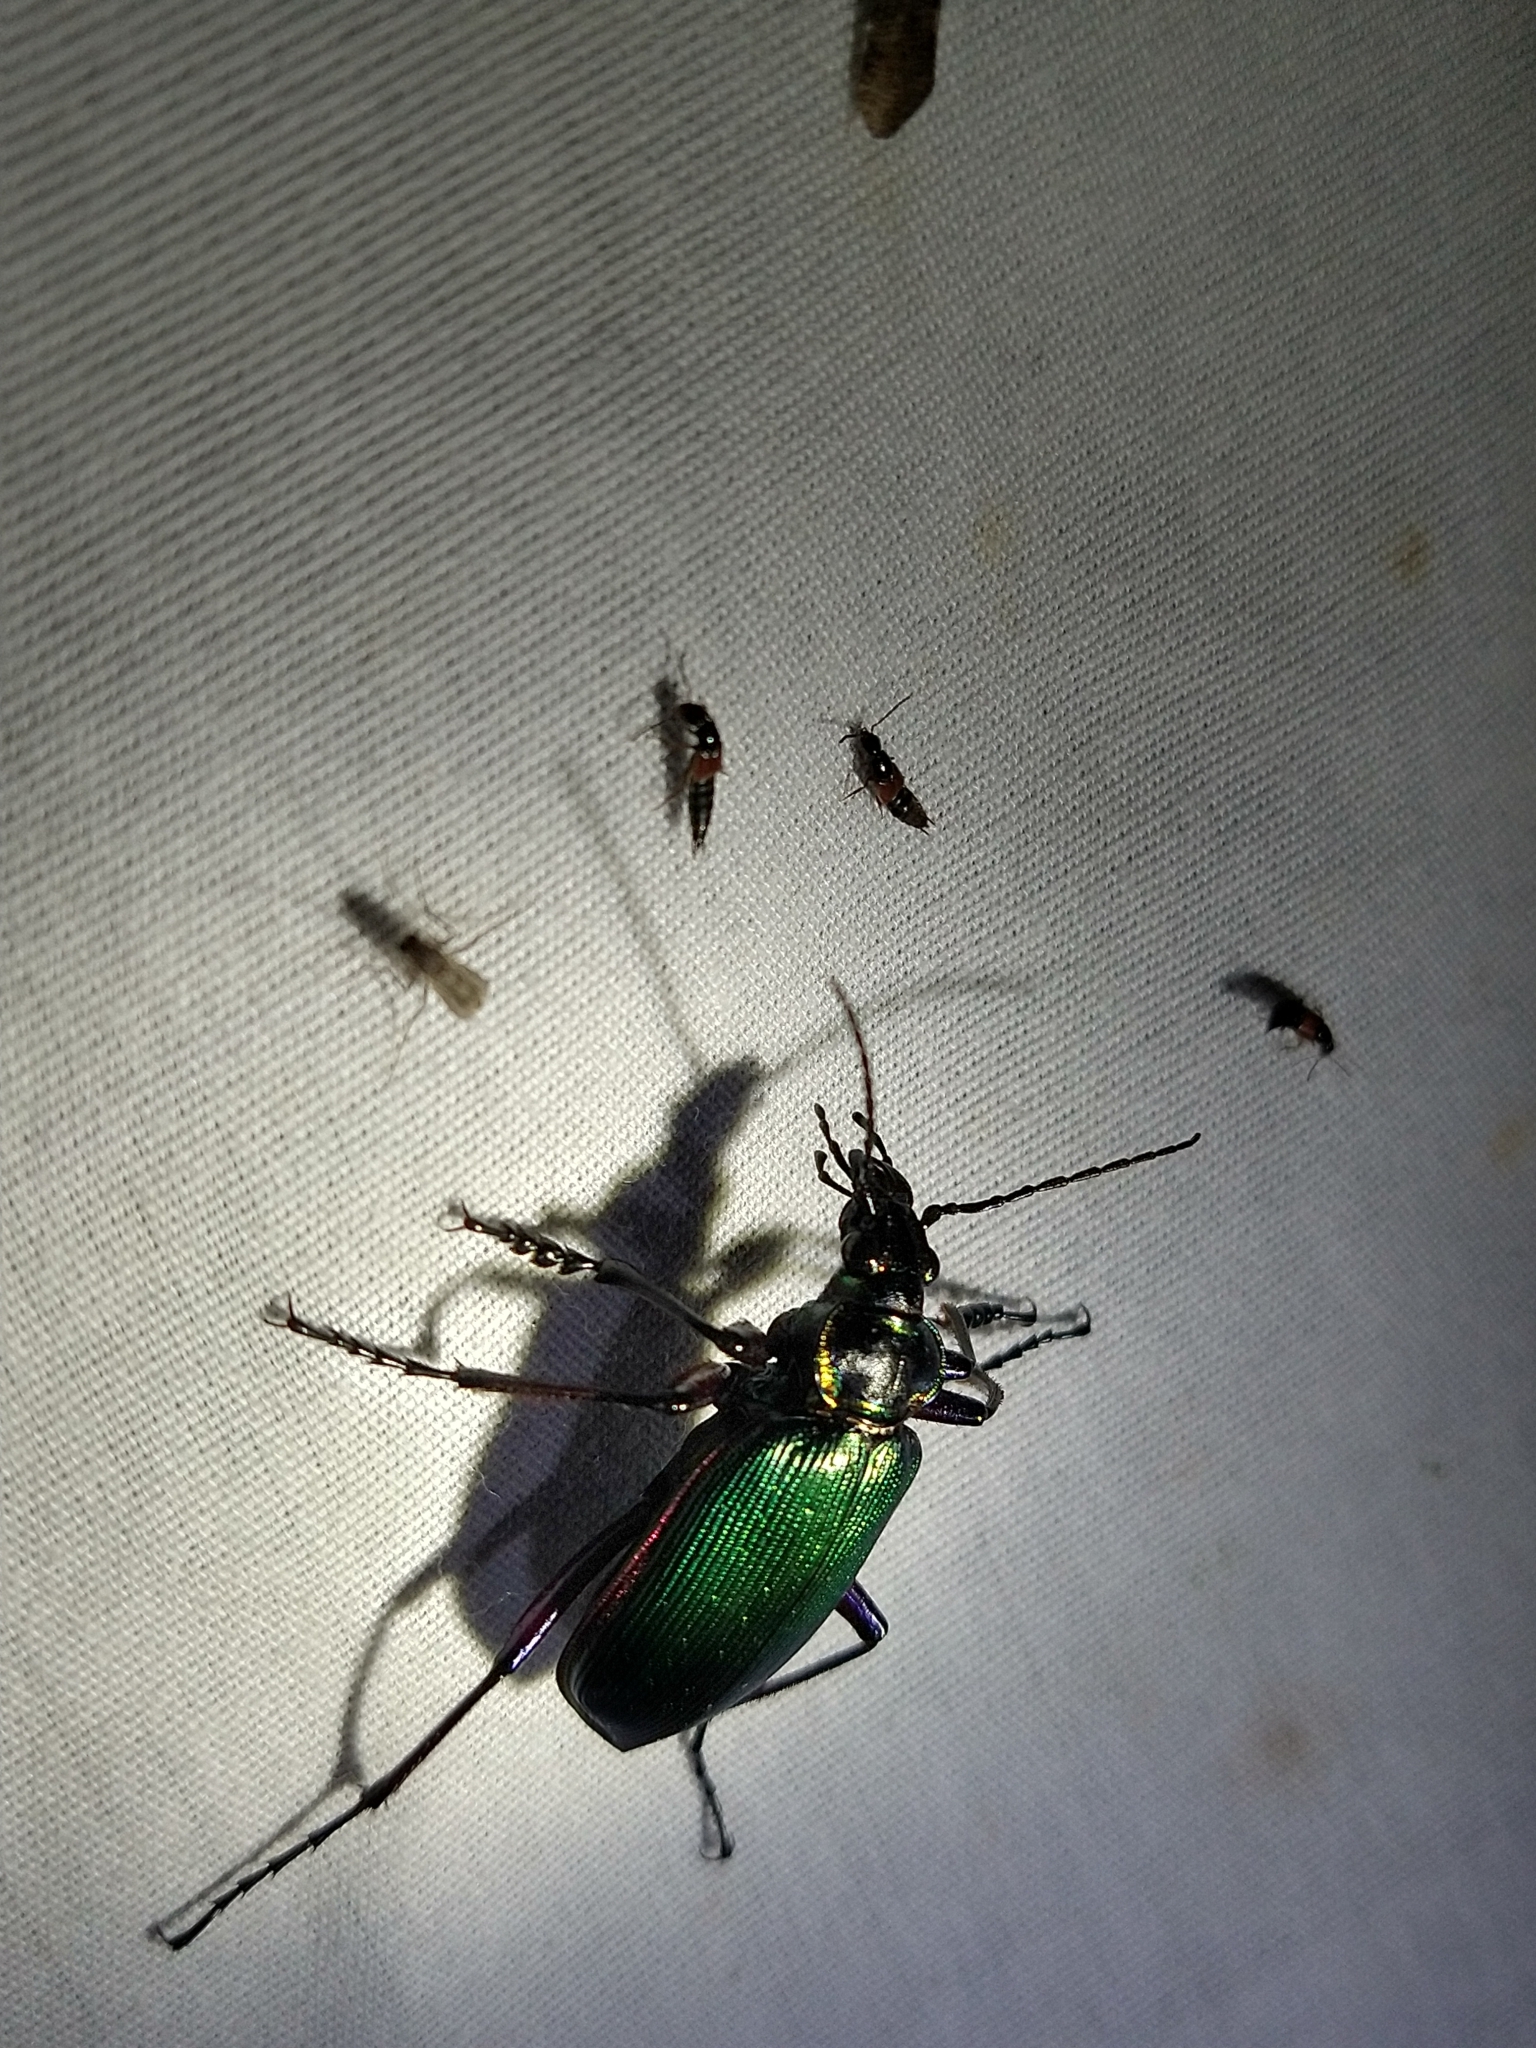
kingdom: Animalia
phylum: Arthropoda
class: Insecta
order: Coleoptera
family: Carabidae
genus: Calosoma
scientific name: Calosoma scrutator
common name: Fiery searcher beetle
